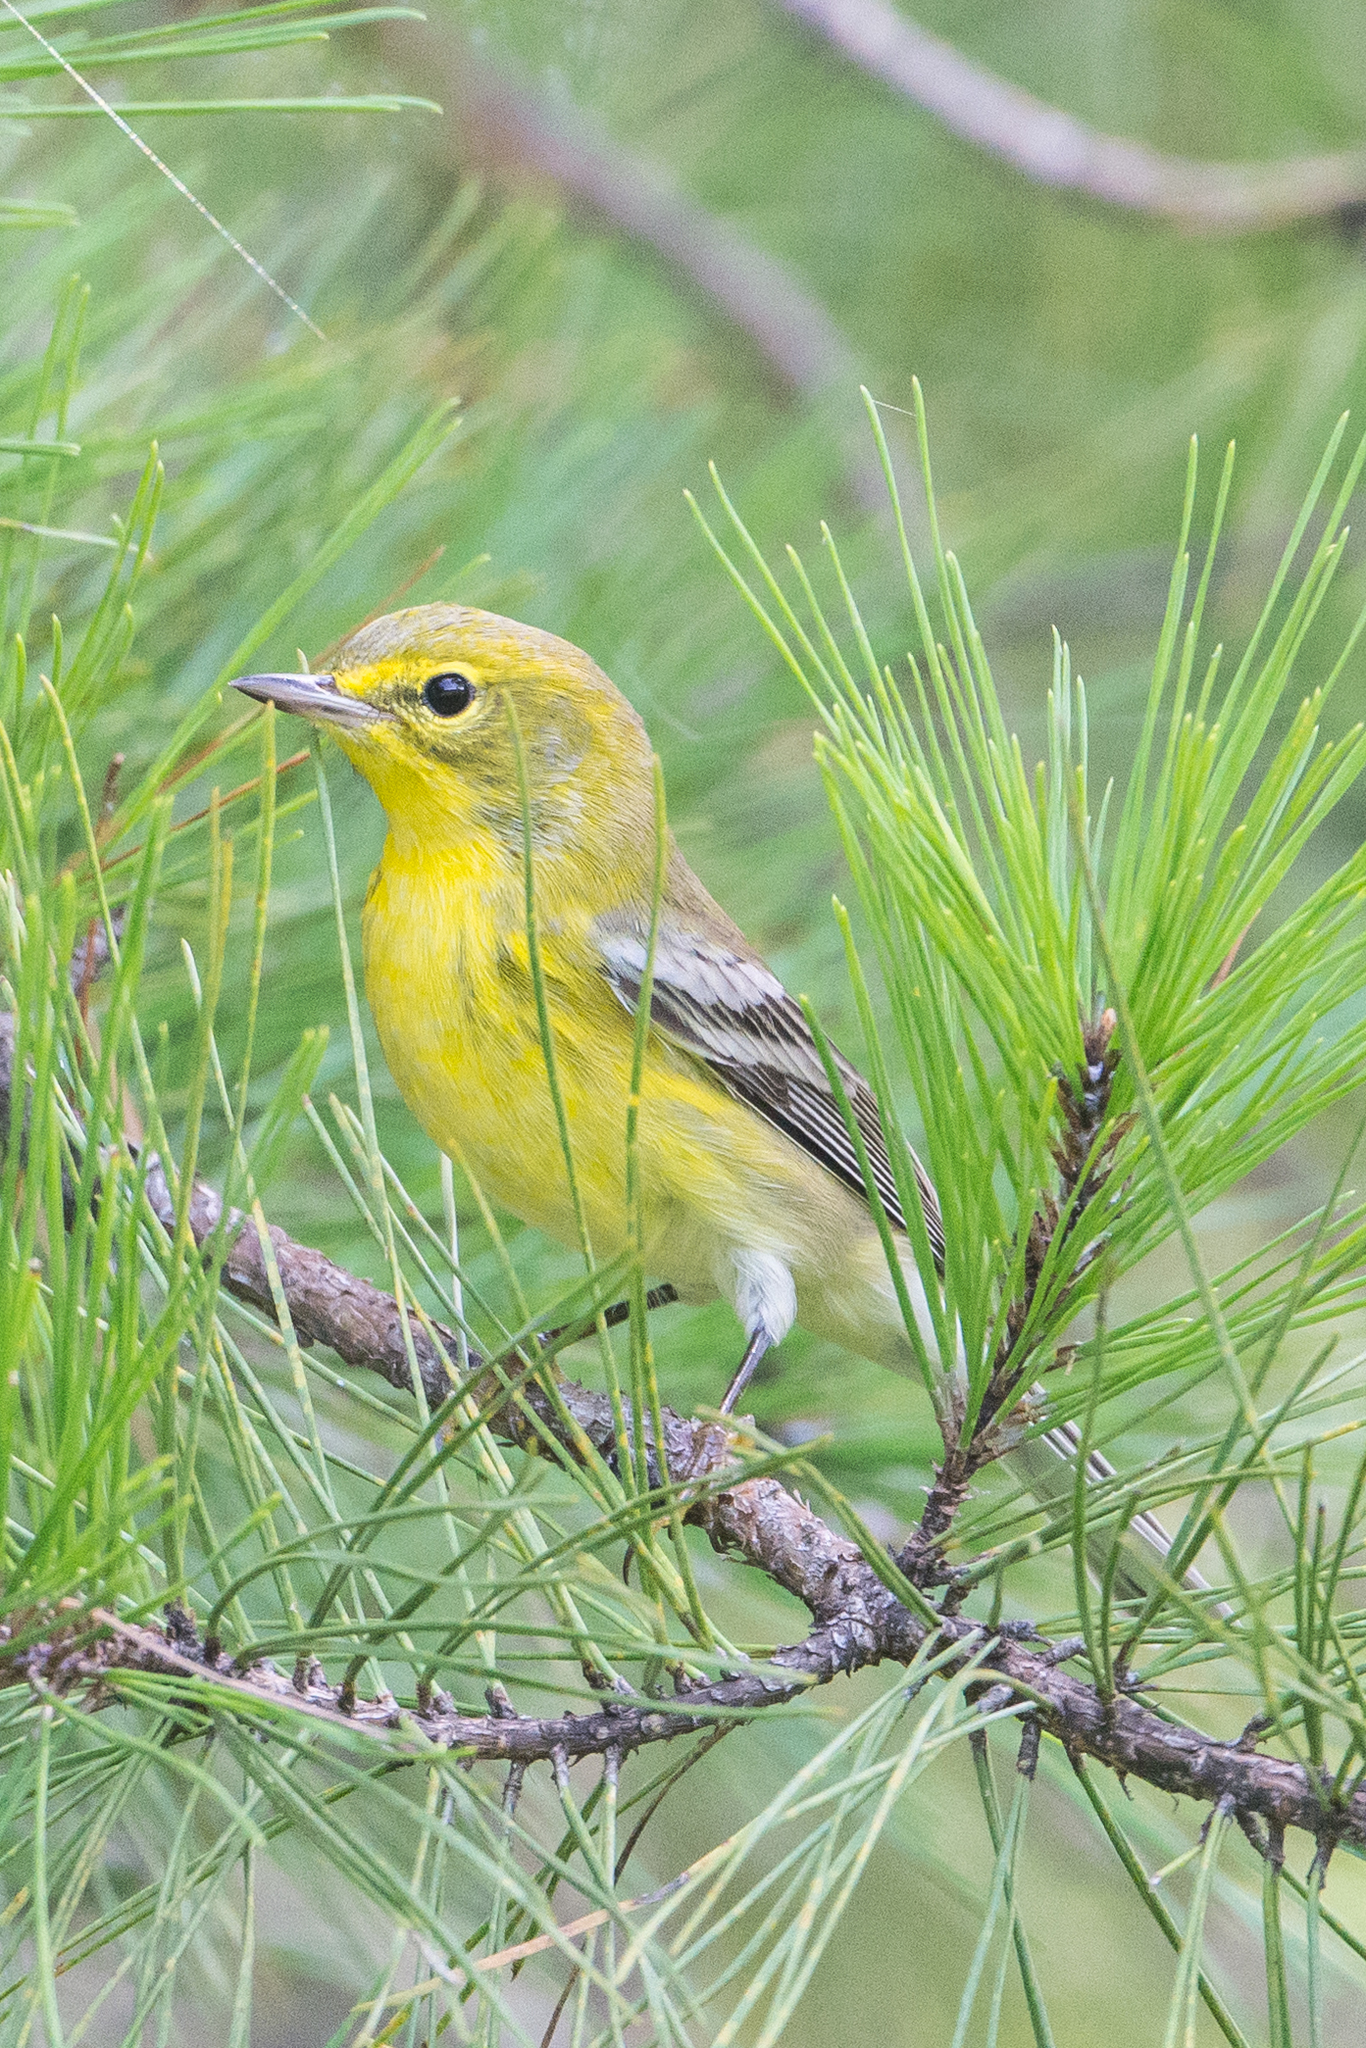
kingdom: Animalia
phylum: Chordata
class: Aves
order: Passeriformes
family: Parulidae
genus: Setophaga
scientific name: Setophaga pinus
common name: Pine warbler
